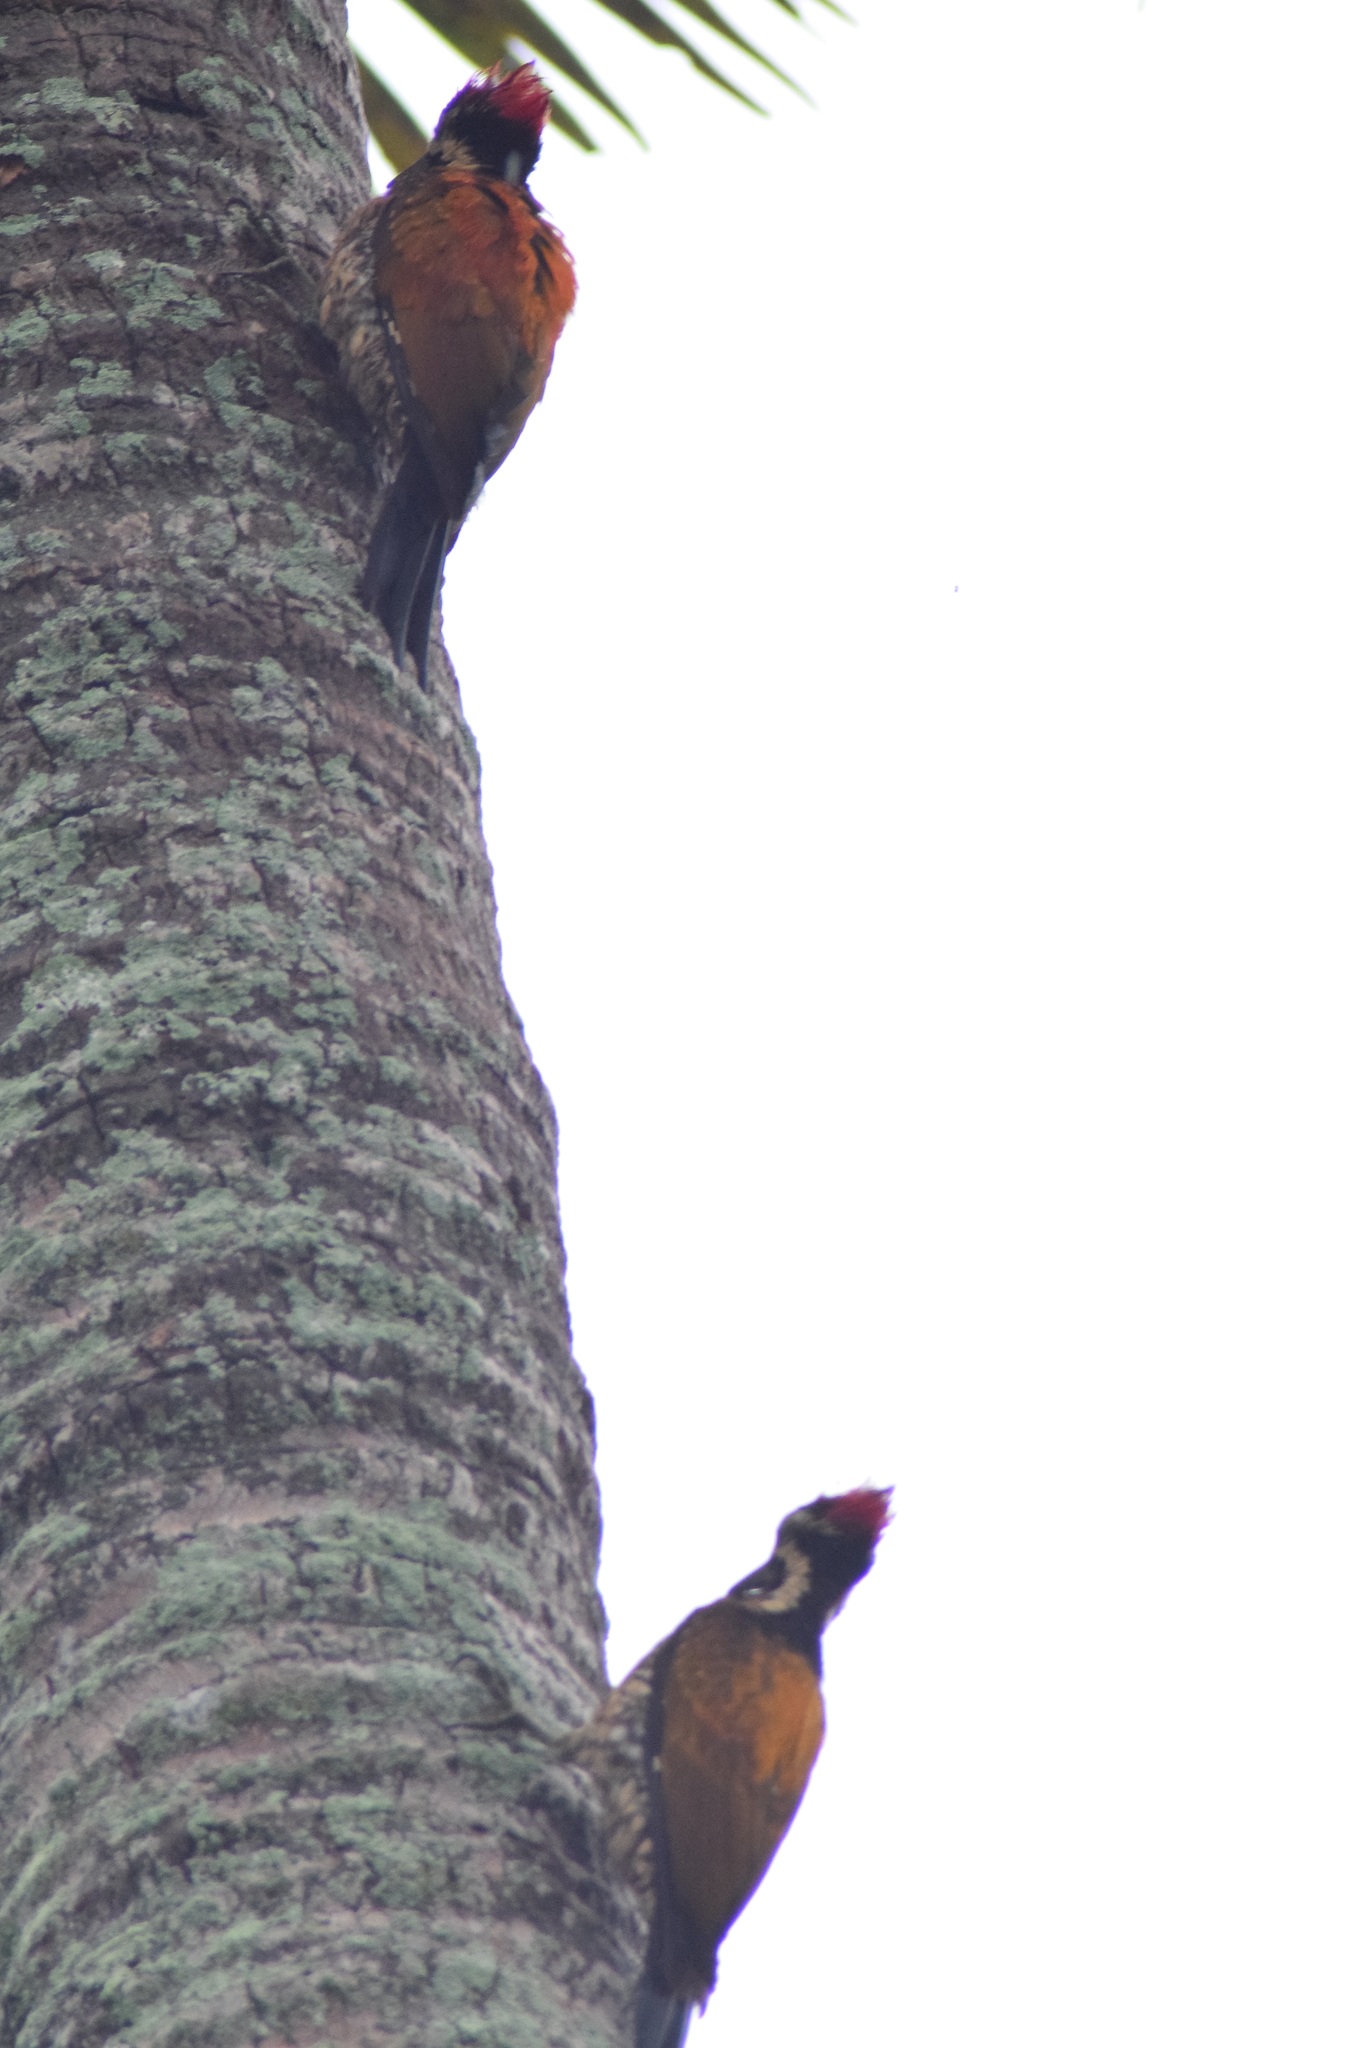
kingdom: Animalia
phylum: Chordata
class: Aves
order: Piciformes
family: Picidae
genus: Dinopium
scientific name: Dinopium benghalense
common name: Black-rumped flameback
